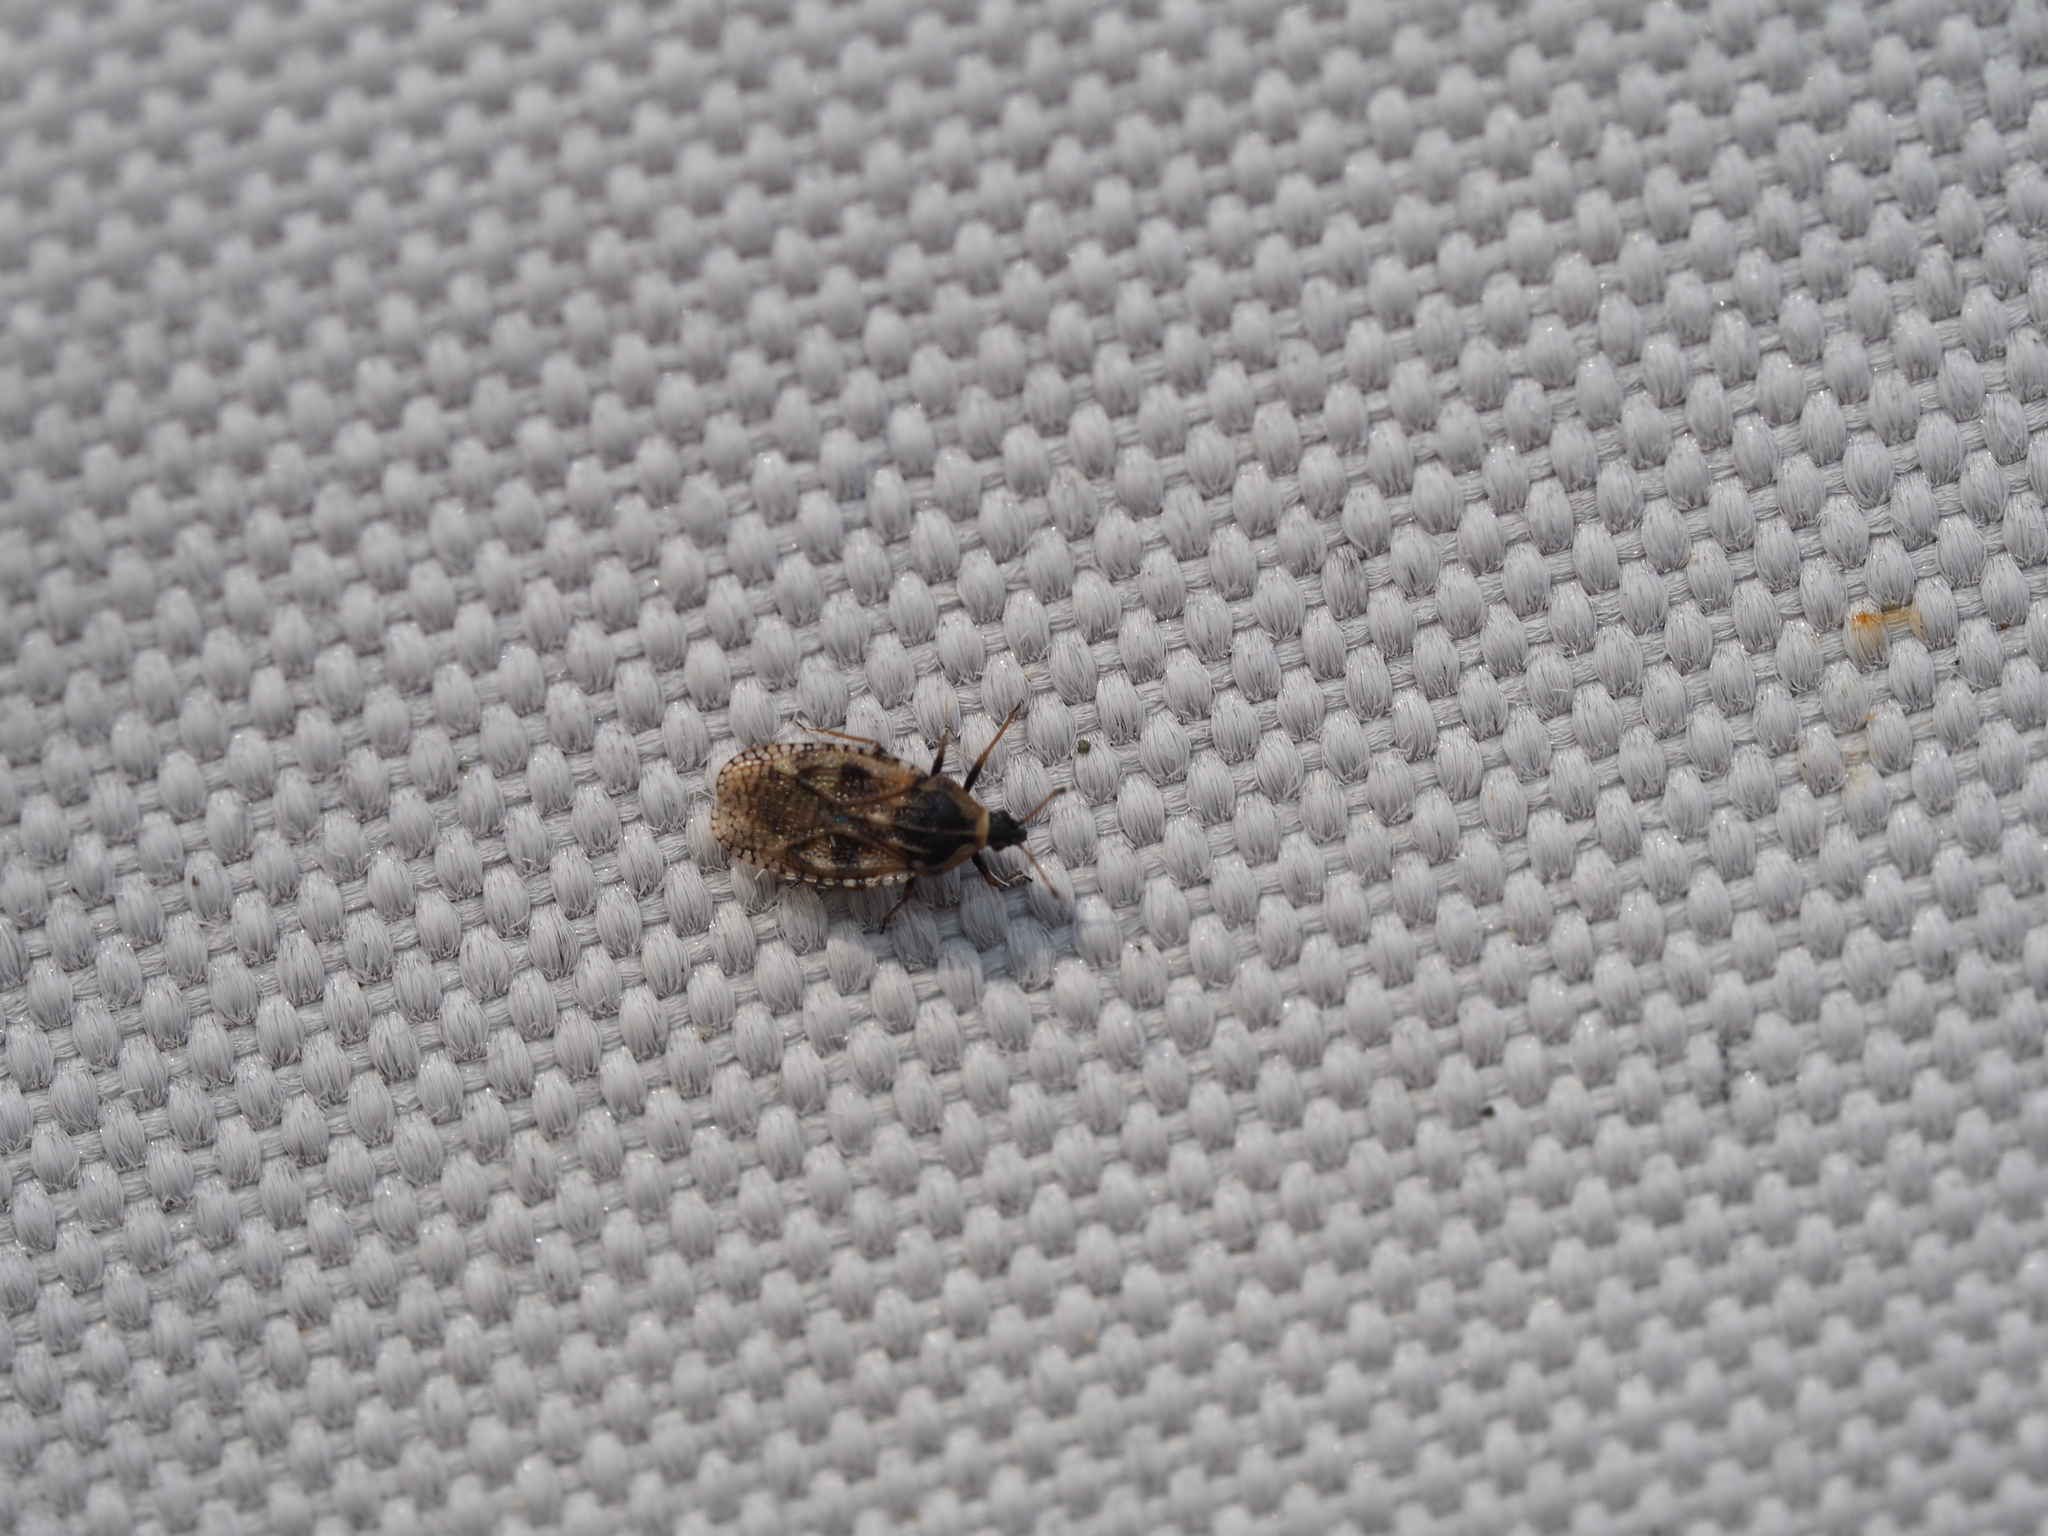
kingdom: Animalia
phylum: Arthropoda
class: Insecta
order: Hemiptera
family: Tingidae
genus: Dictyla
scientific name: Dictyla echii
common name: Lace bug
